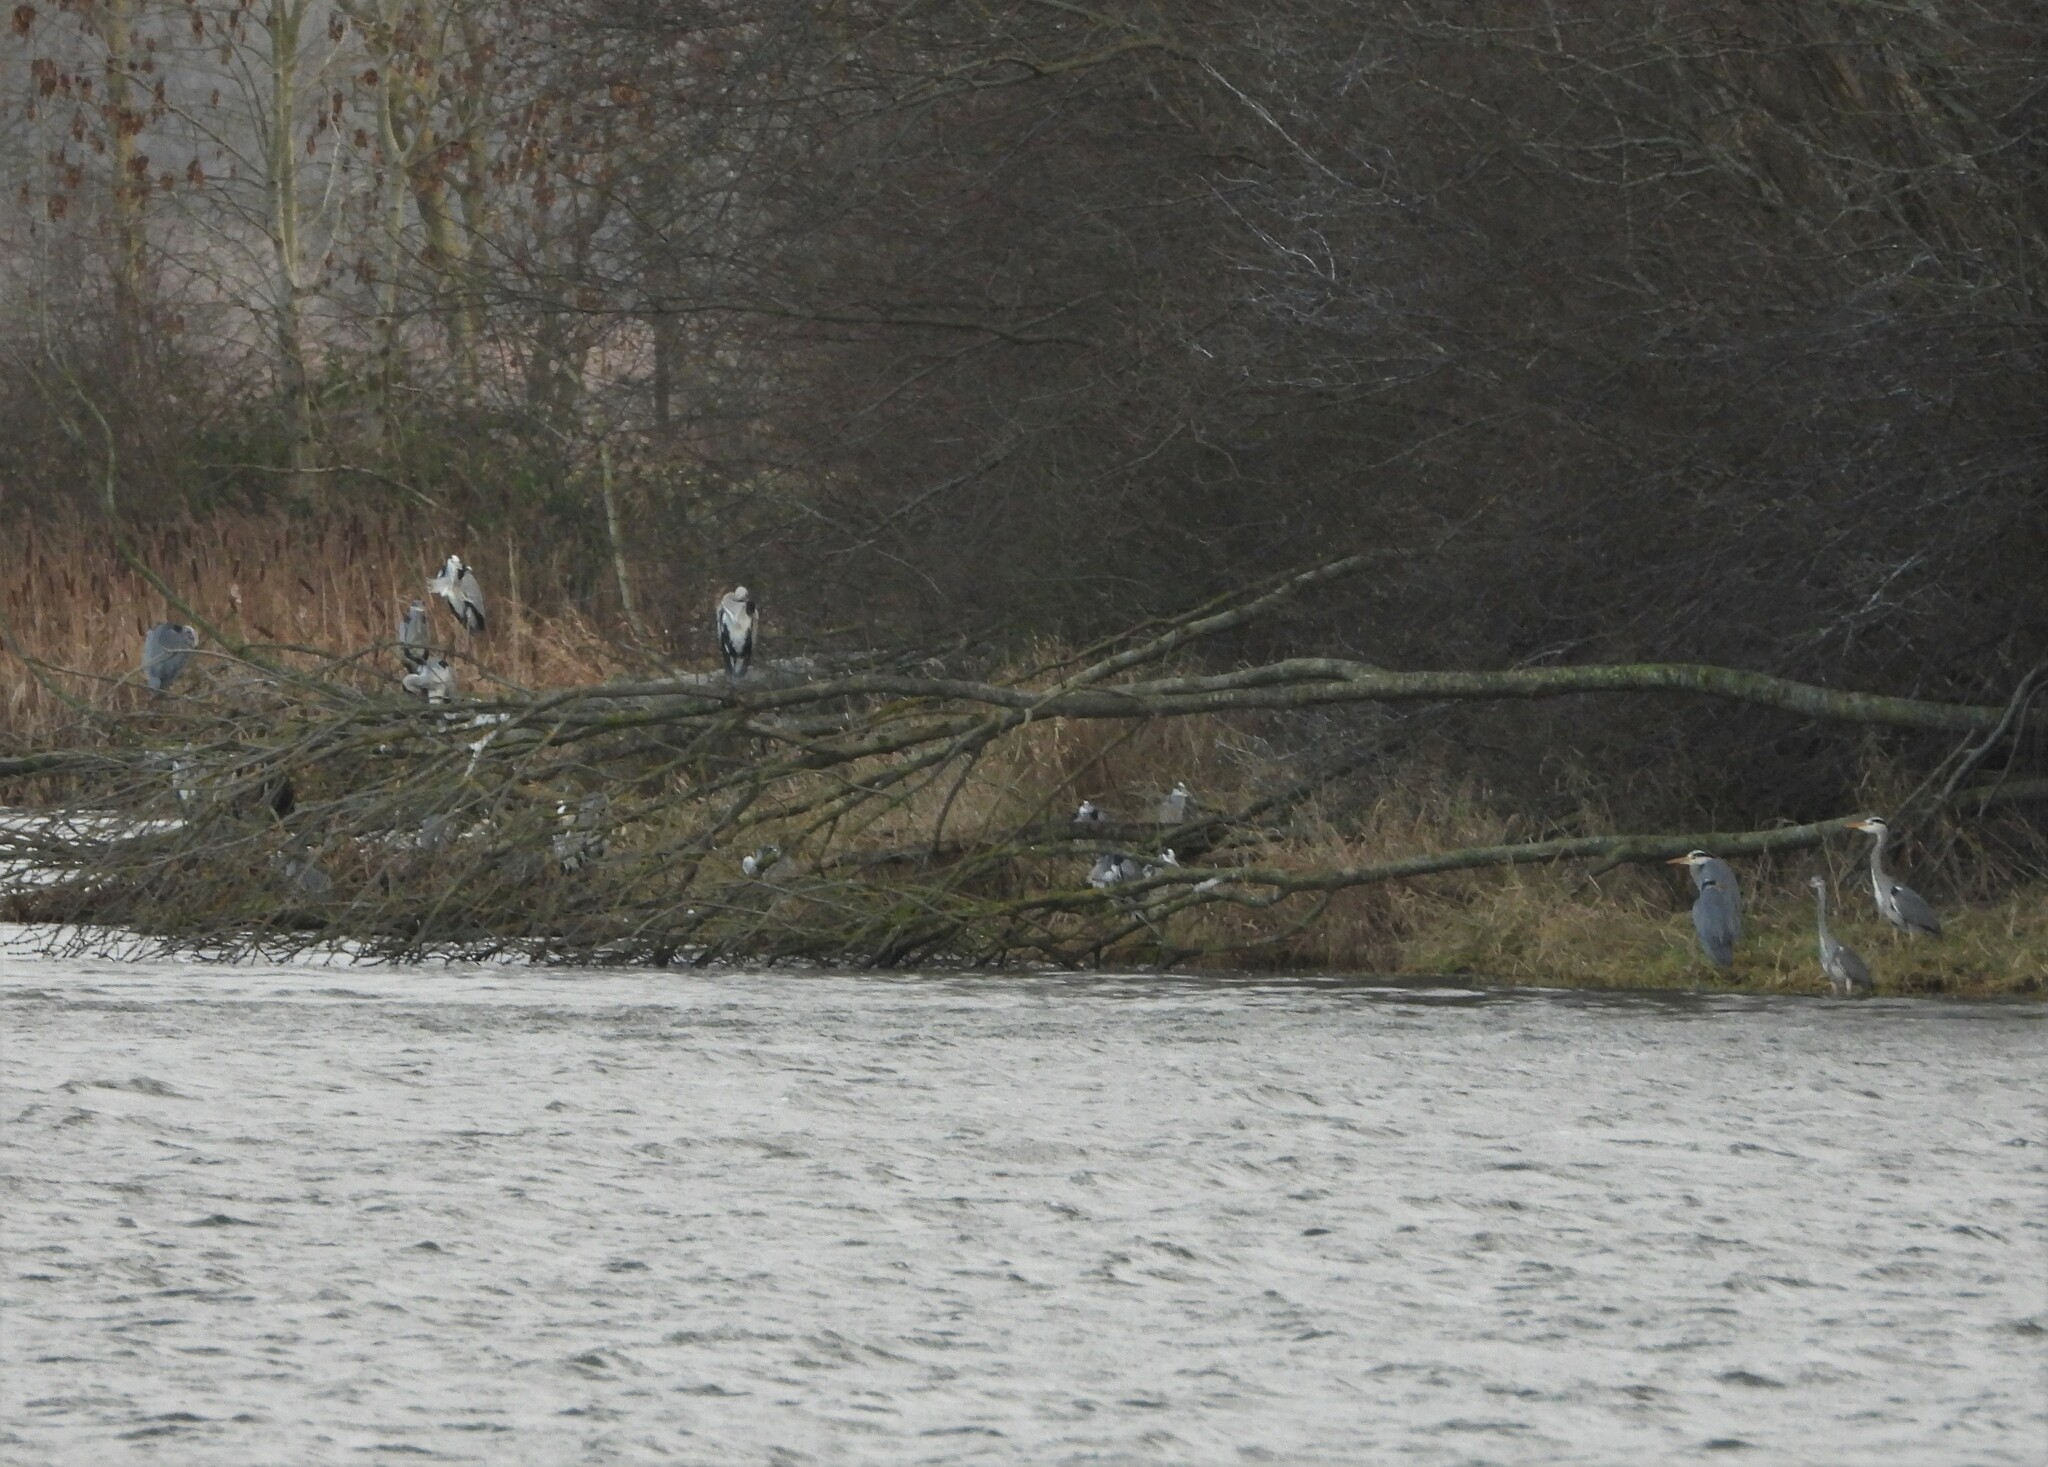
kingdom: Animalia
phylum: Chordata
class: Aves
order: Pelecaniformes
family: Ardeidae
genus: Ardea
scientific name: Ardea cinerea
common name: Grey heron
